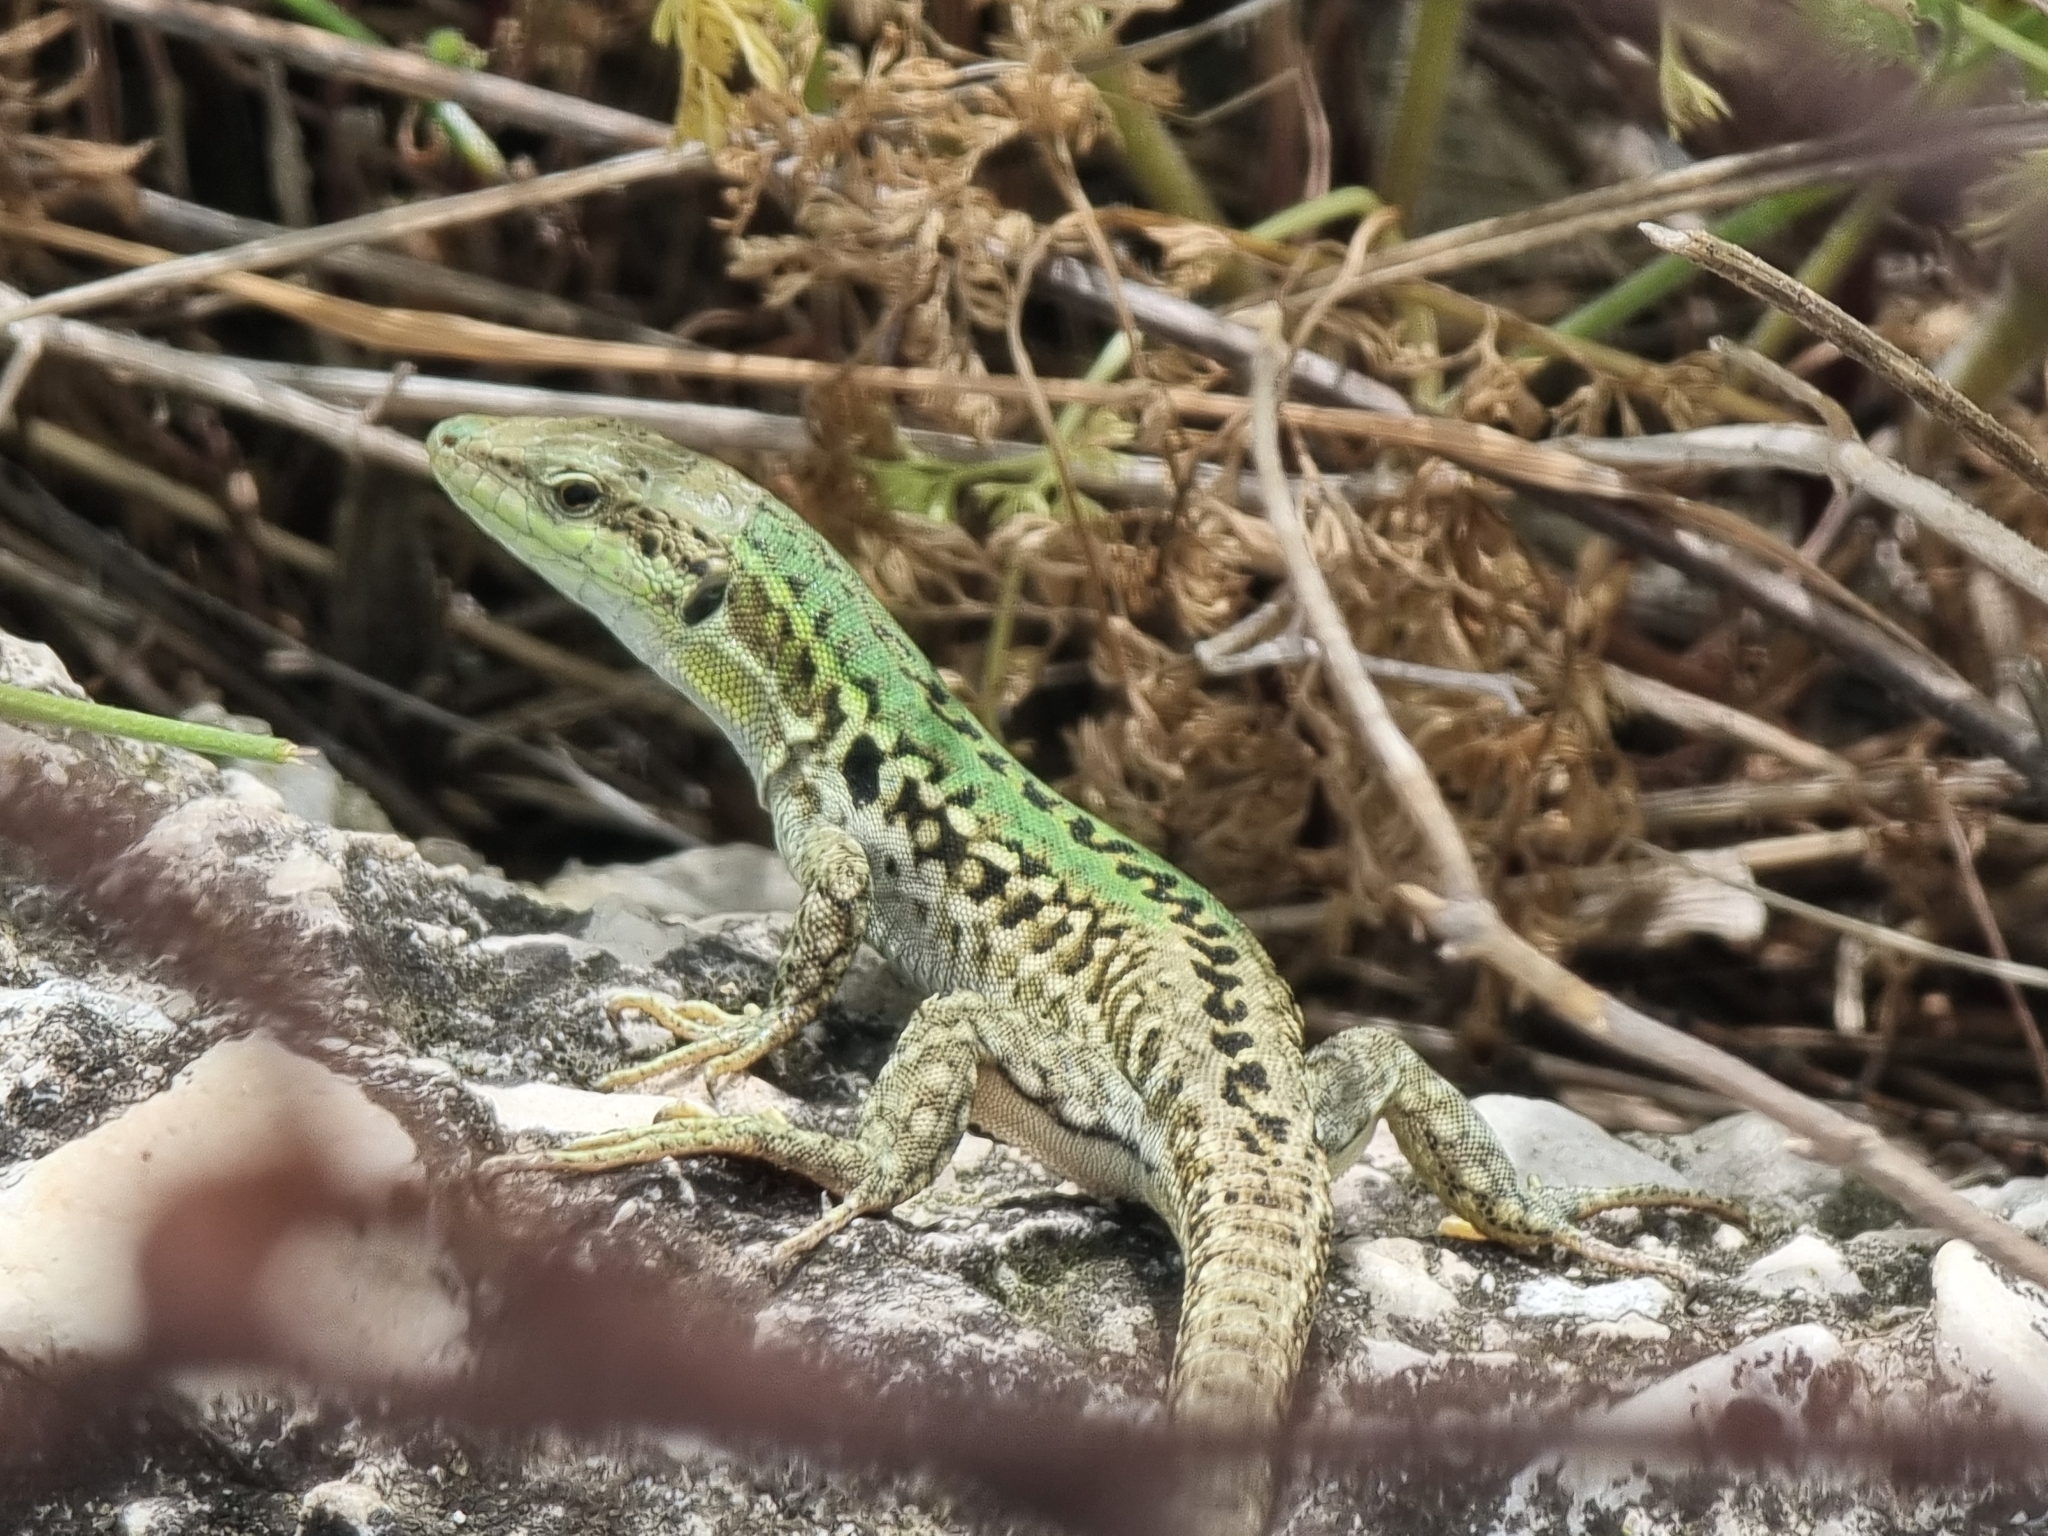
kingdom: Animalia
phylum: Chordata
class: Squamata
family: Lacertidae
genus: Podarcis
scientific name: Podarcis siculus
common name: Italian wall lizard
